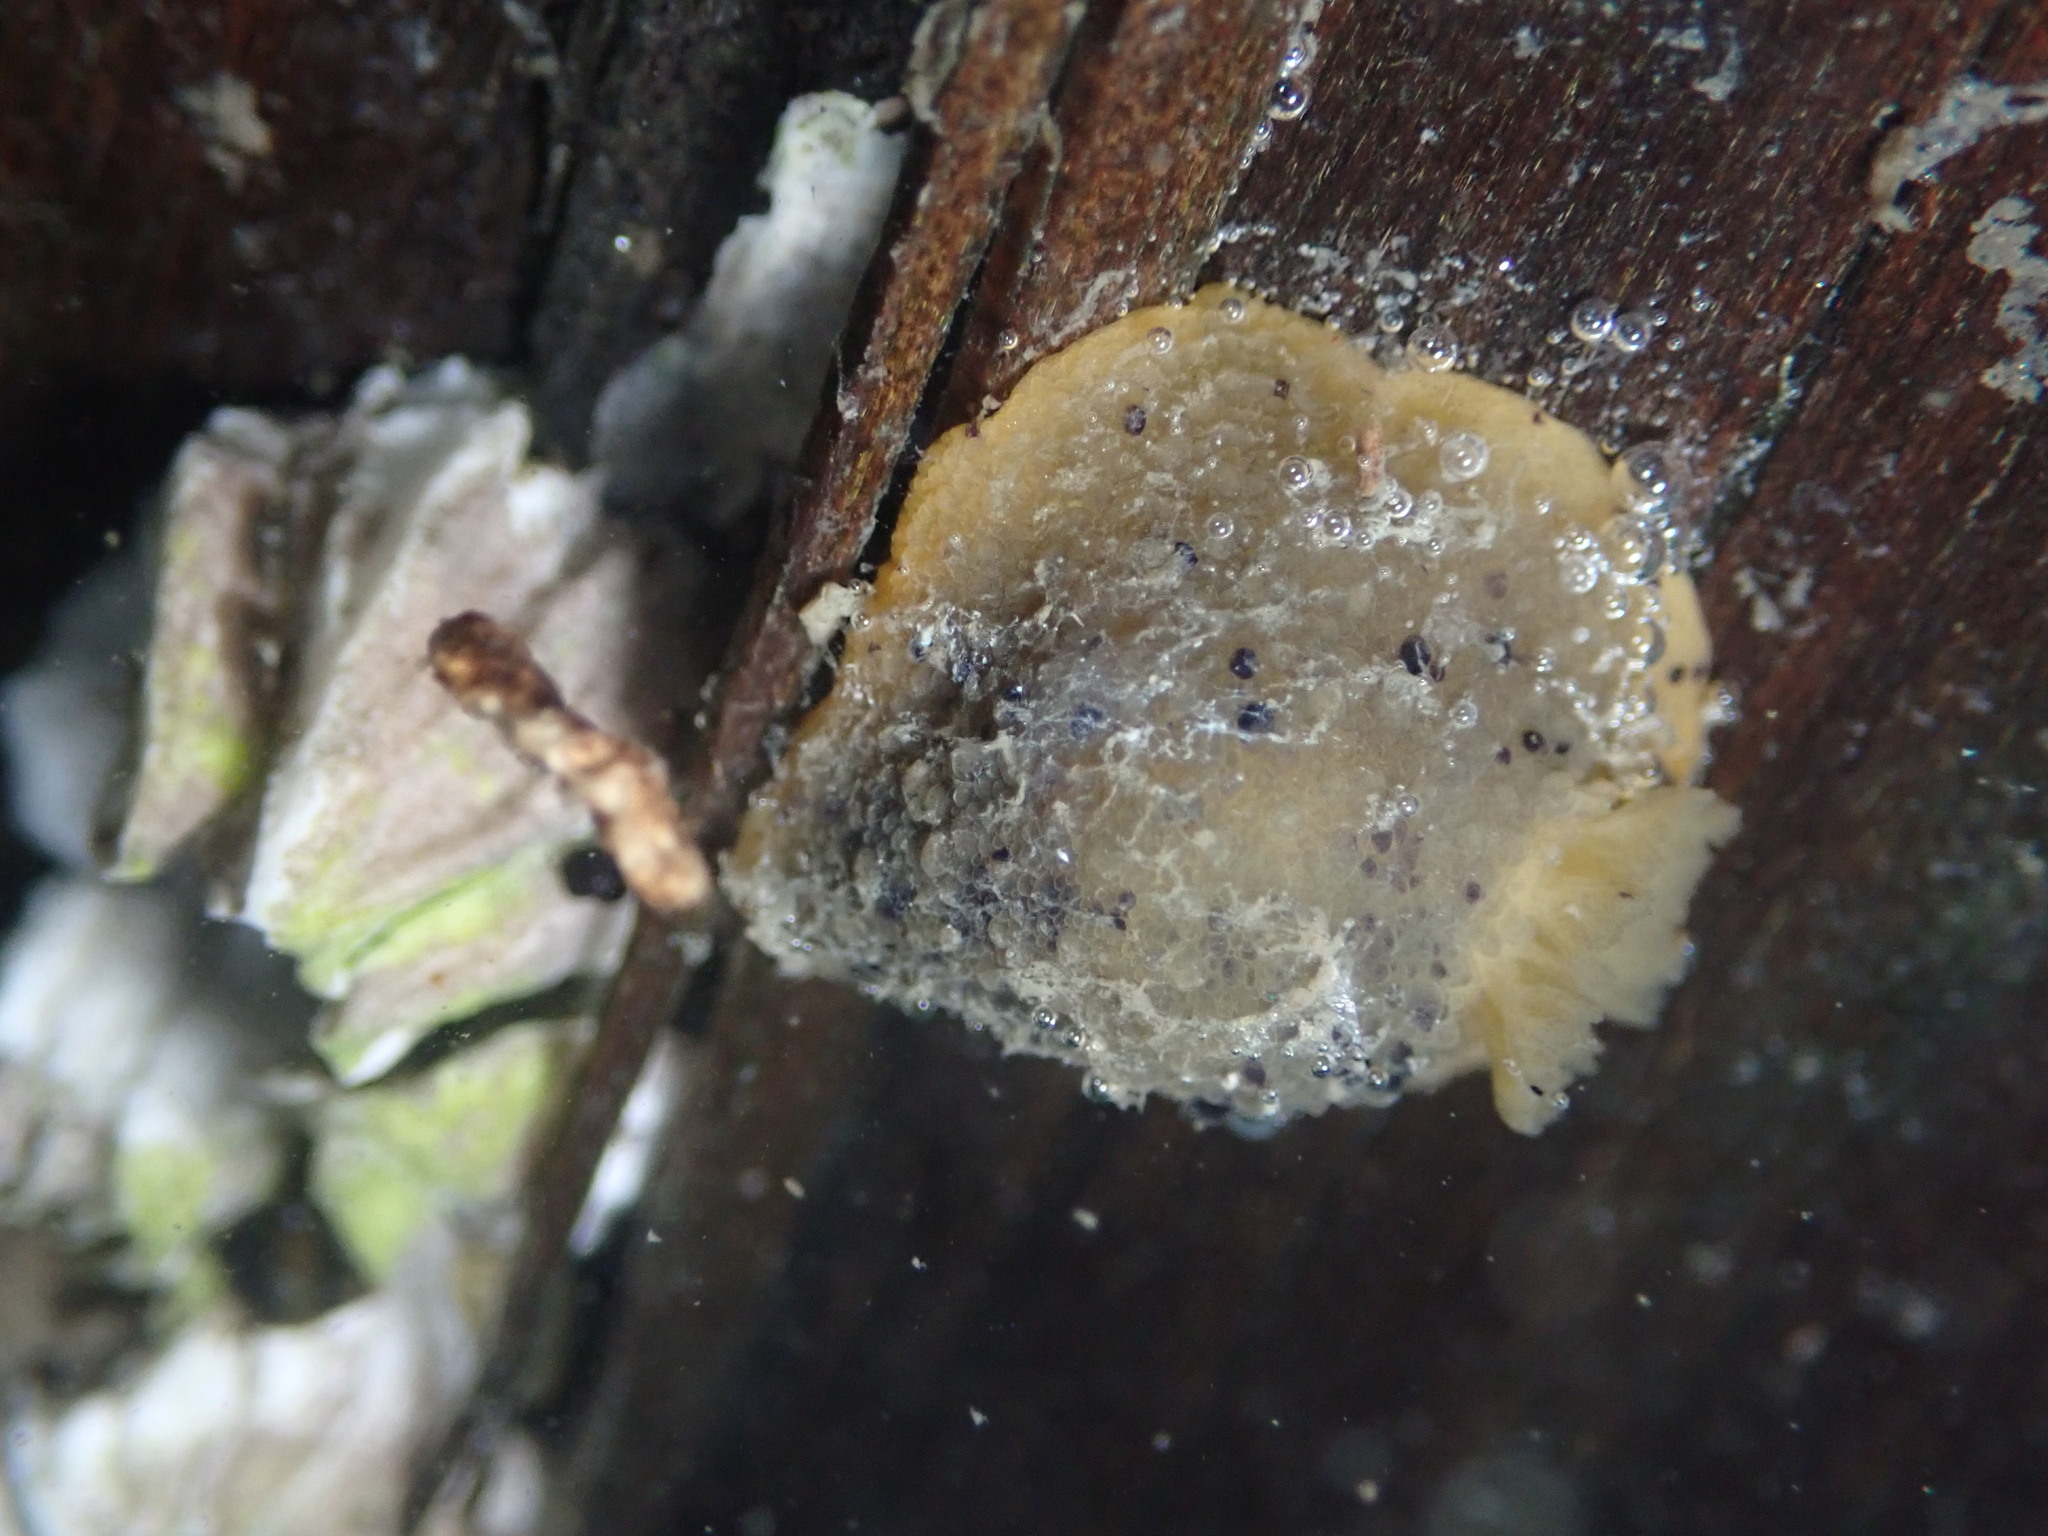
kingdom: Animalia
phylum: Mollusca
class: Gastropoda
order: Nudibranchia
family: Dorididae
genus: Doris
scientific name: Doris montereyensis
